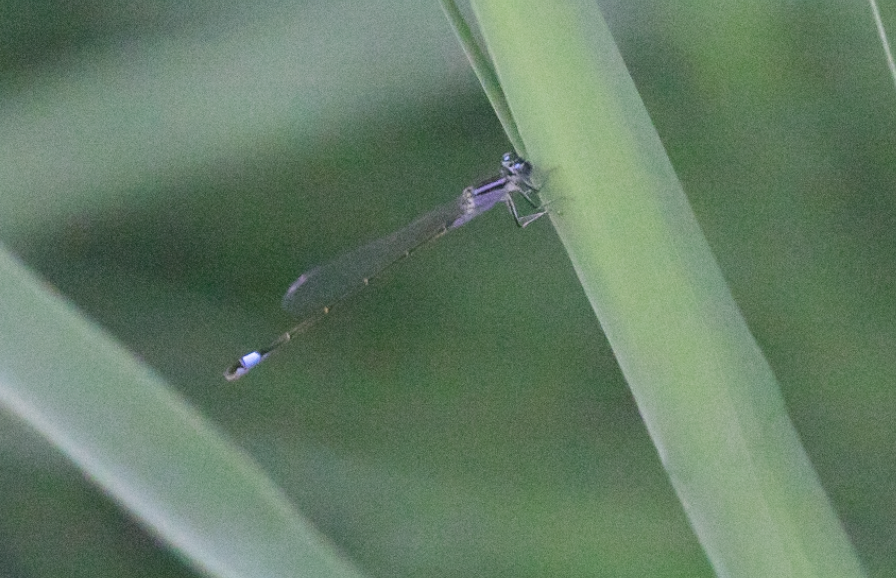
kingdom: Animalia
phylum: Arthropoda
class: Insecta
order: Odonata
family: Coenagrionidae
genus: Ischnura
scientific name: Ischnura elegans
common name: Blue-tailed damselfly
